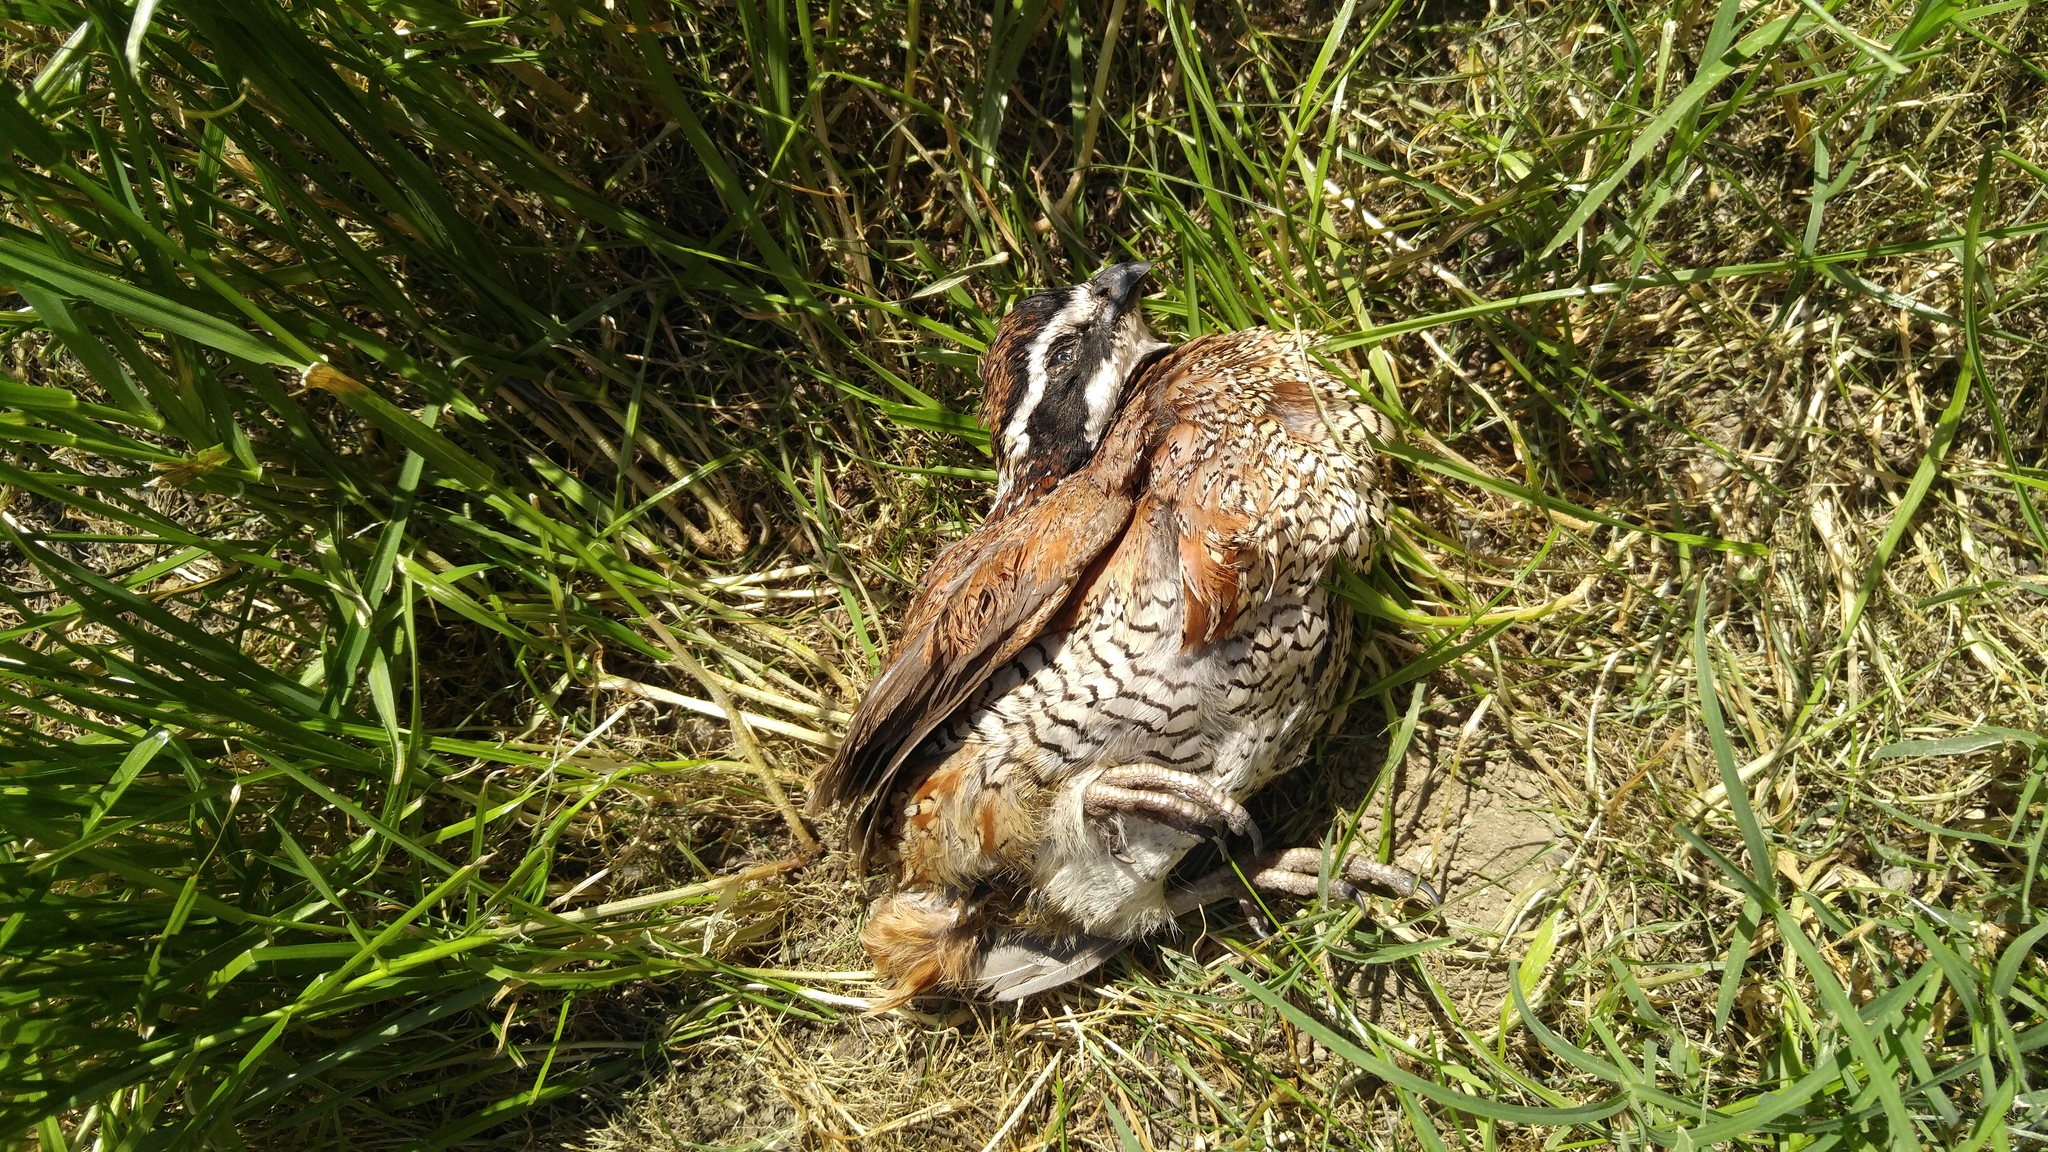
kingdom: Animalia
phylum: Chordata
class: Aves
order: Galliformes
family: Odontophoridae
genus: Colinus
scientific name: Colinus virginianus
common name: Northern bobwhite
